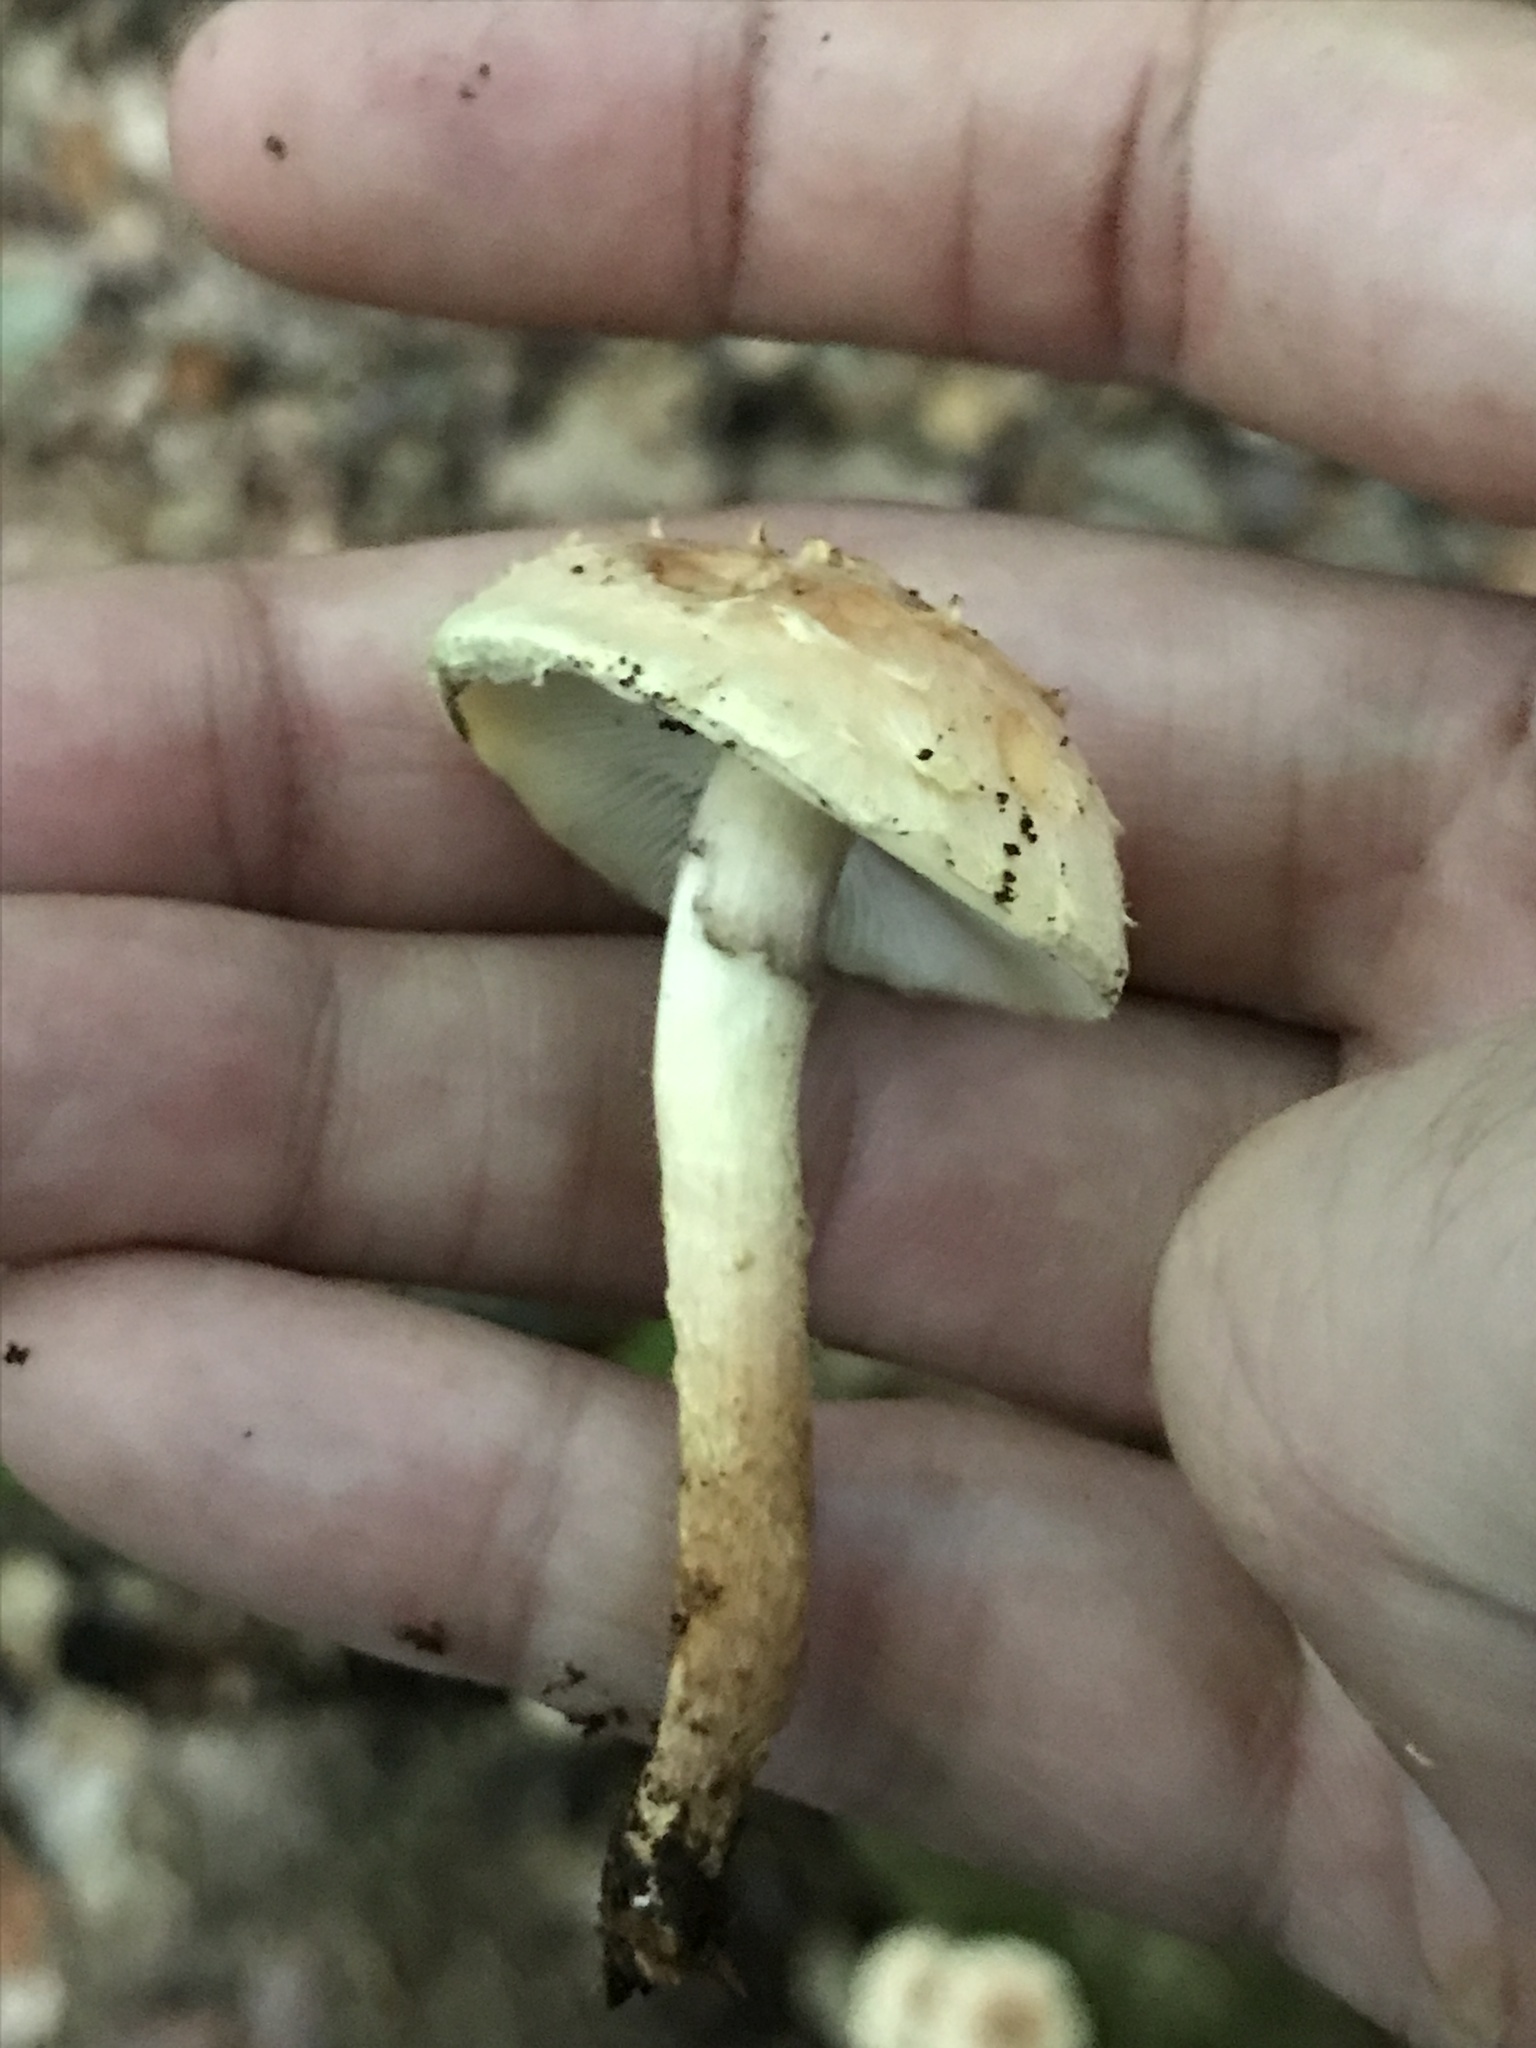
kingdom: Fungi
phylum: Basidiomycota
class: Agaricomycetes
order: Agaricales
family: Strophariaceae
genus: Hypholoma
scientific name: Hypholoma lateritium
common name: Brick caps
